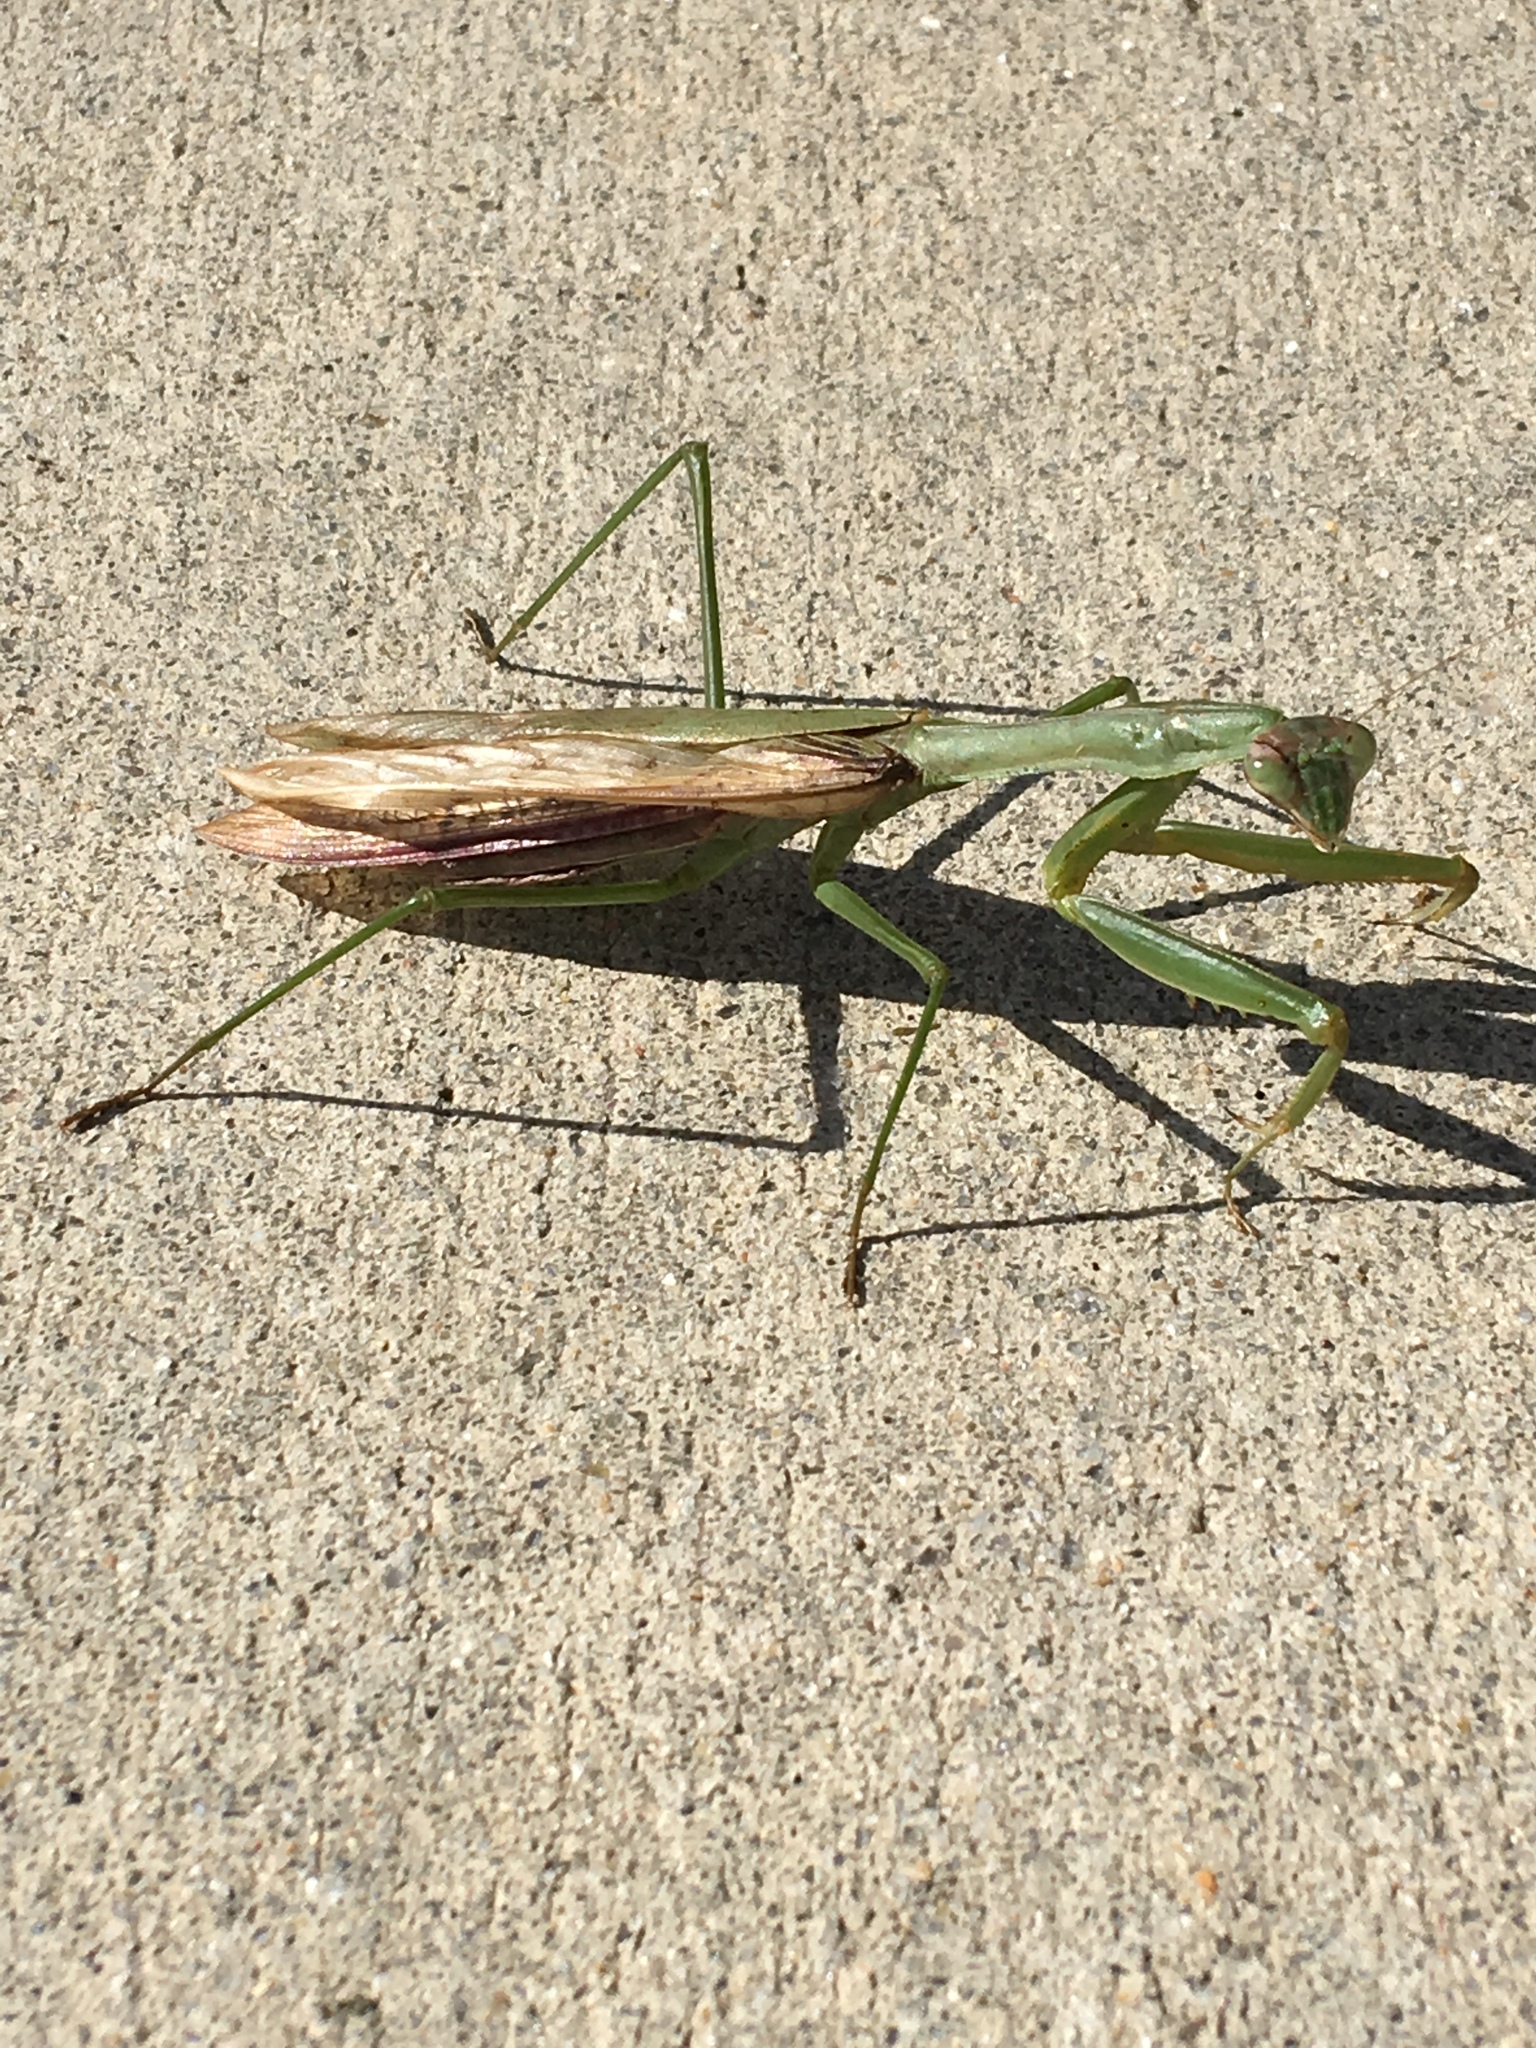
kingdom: Animalia
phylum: Arthropoda
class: Insecta
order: Mantodea
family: Mantidae
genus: Tenodera
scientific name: Tenodera sinensis
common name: Chinese mantis
